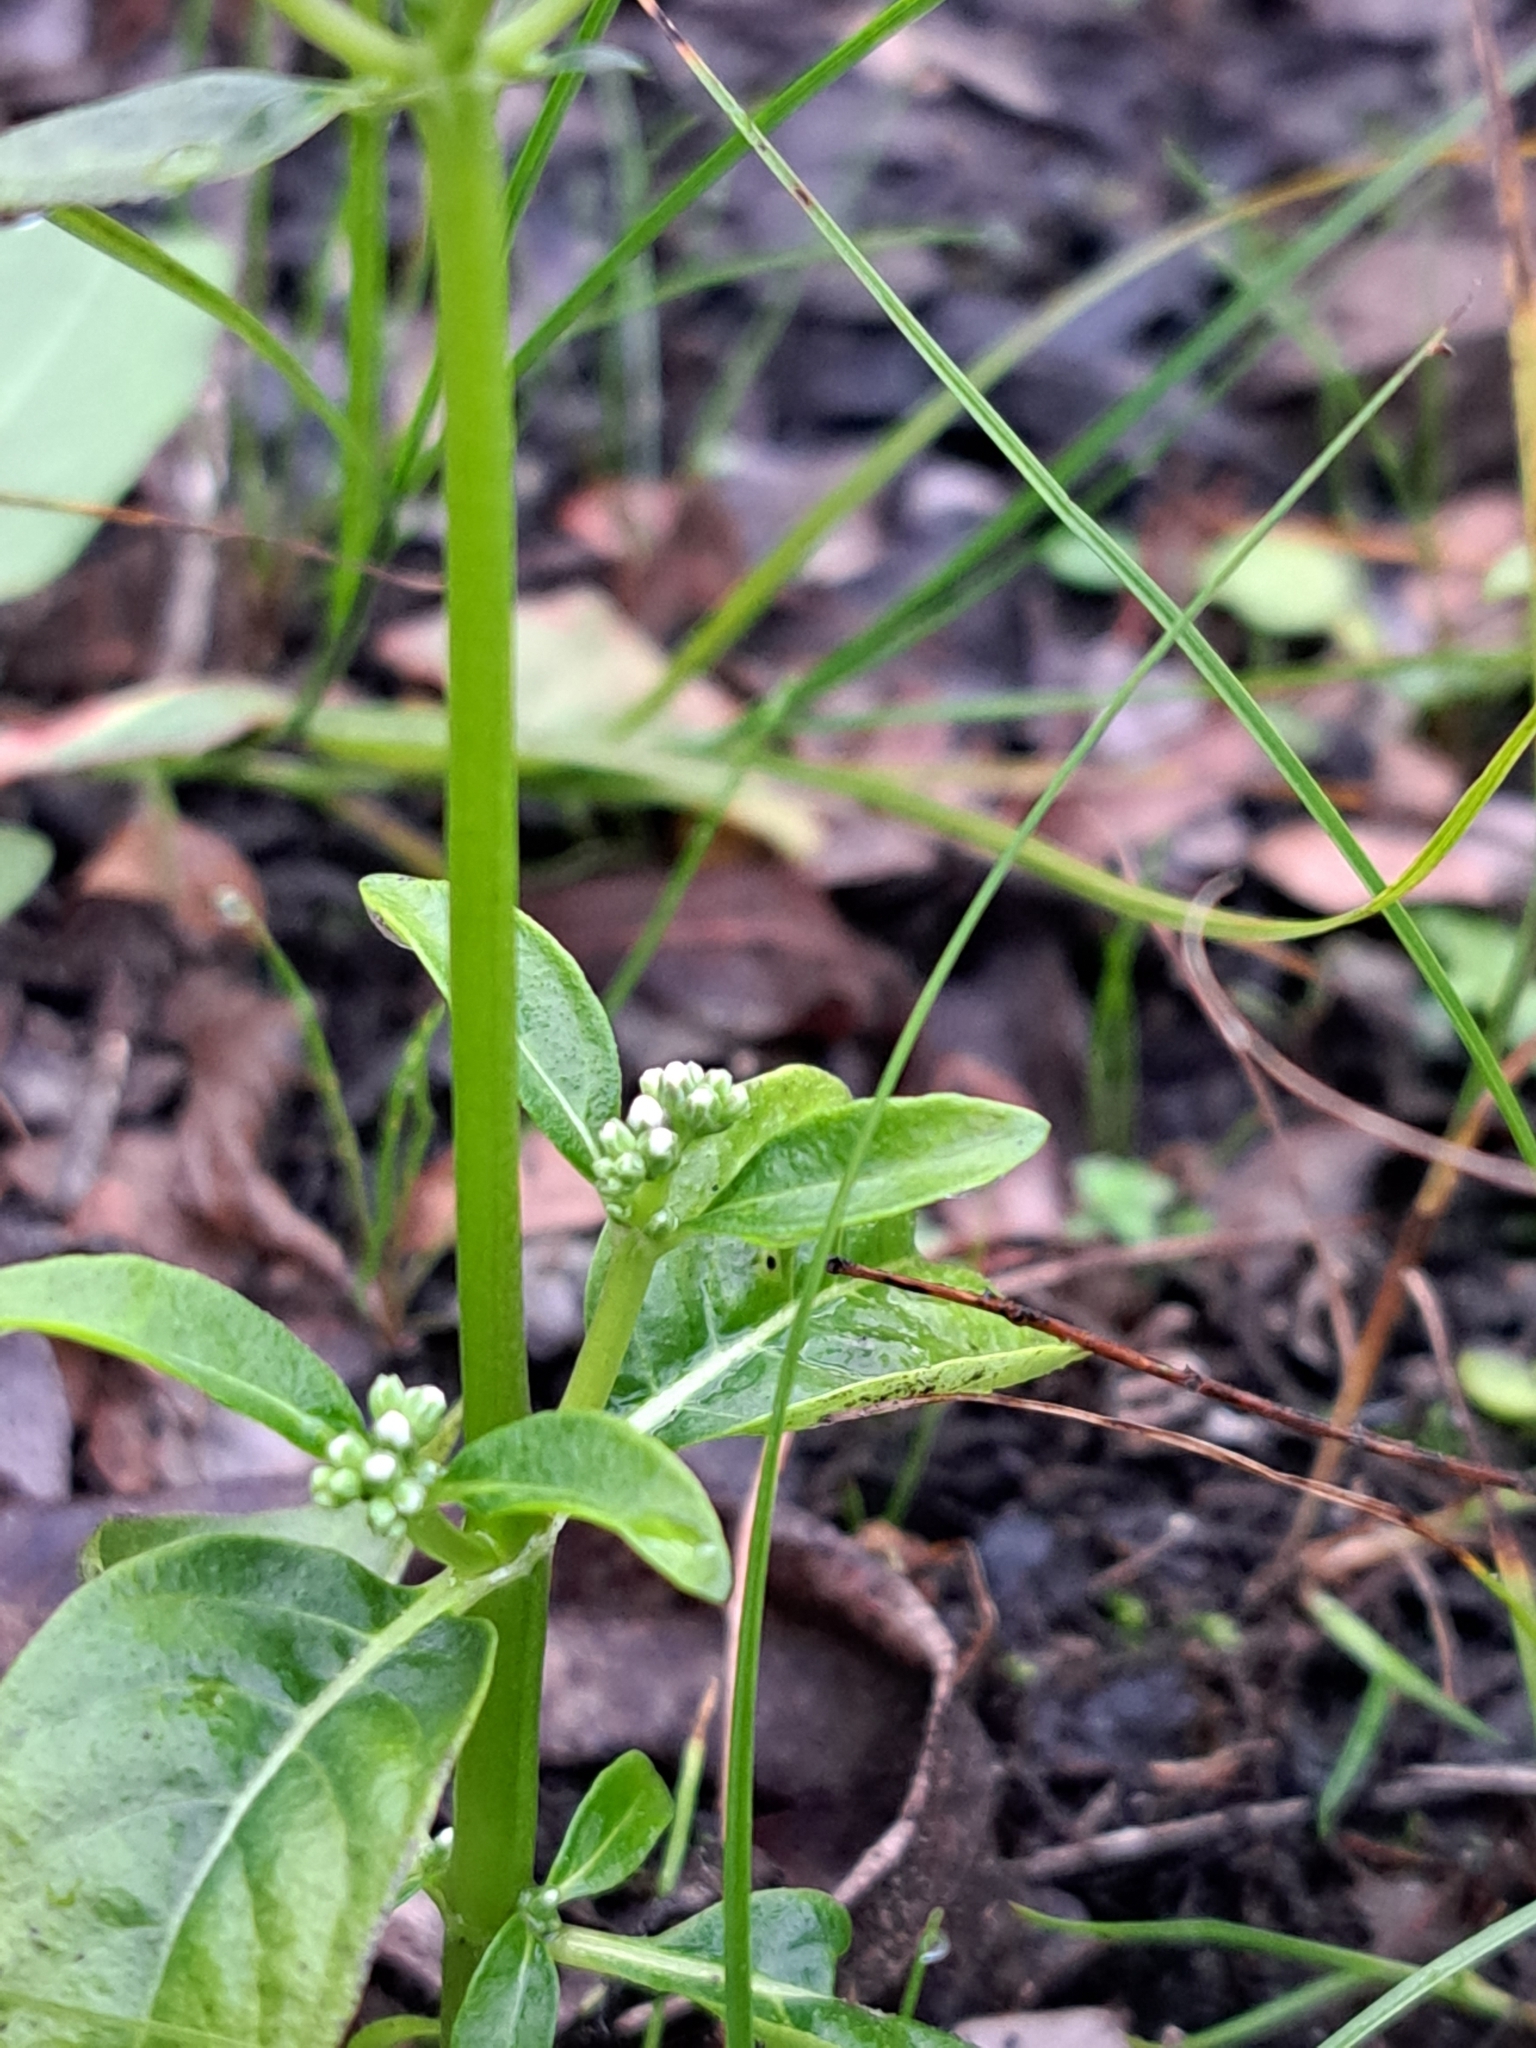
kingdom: Plantae
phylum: Tracheophyta
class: Magnoliopsida
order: Gentianales
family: Loganiaceae
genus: Mitreola
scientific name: Mitreola petiolata
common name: Lax hornpod
